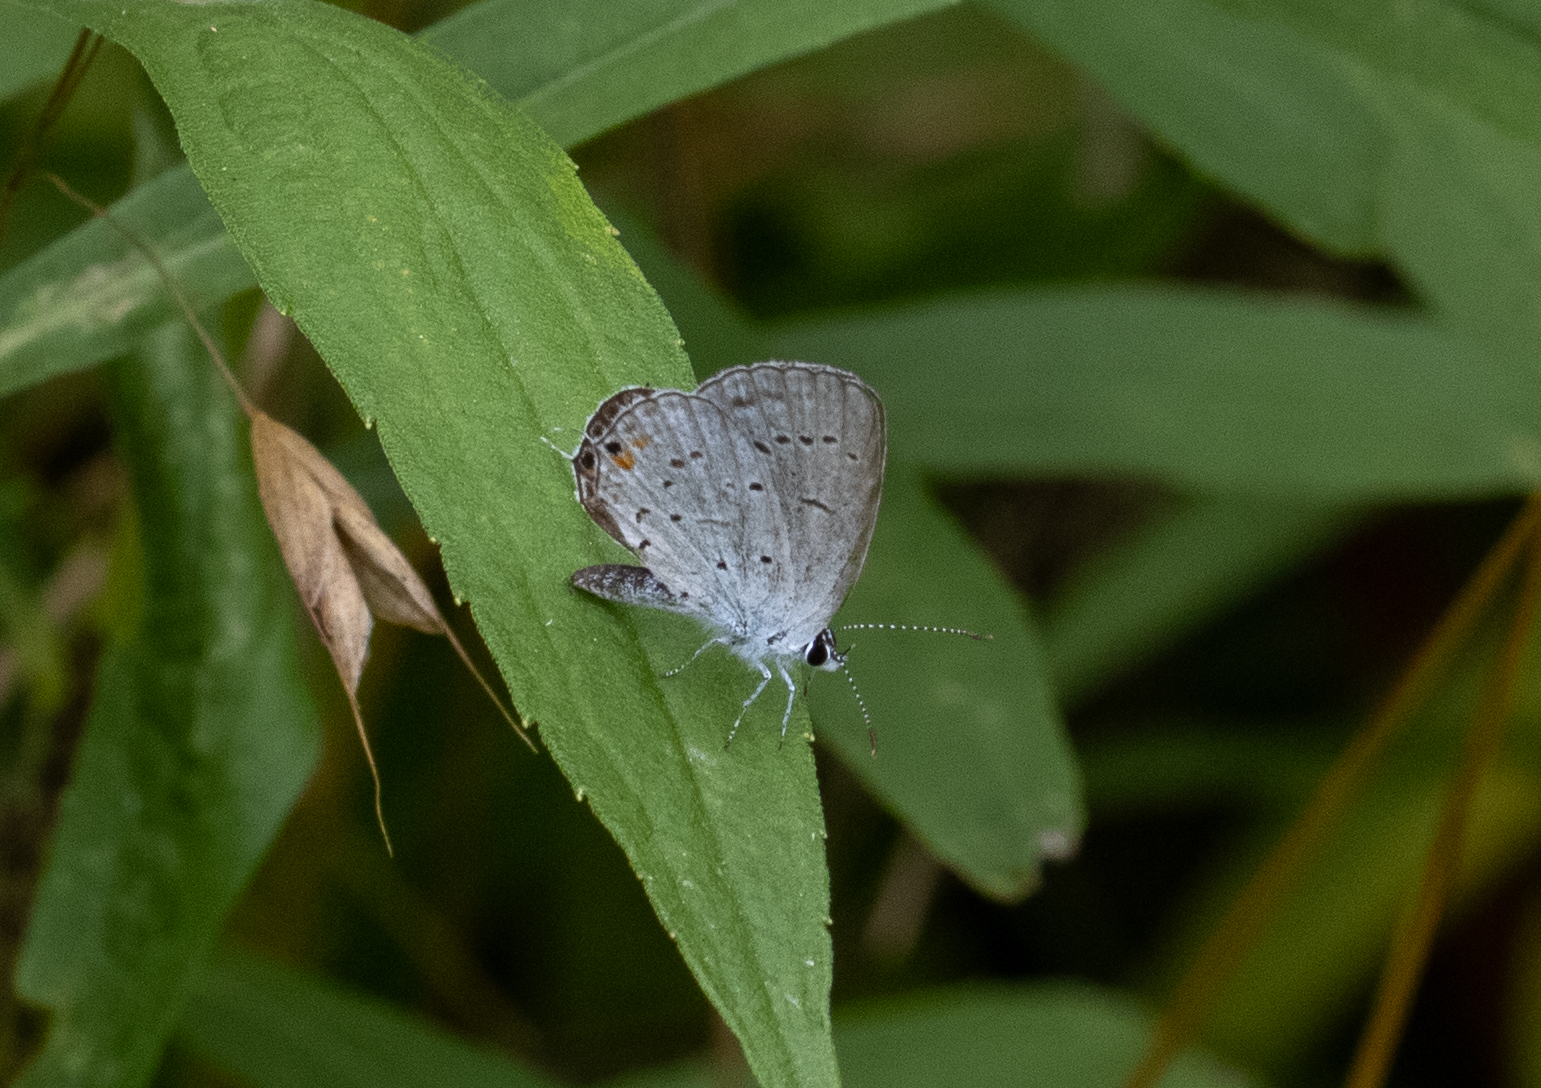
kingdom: Animalia
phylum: Arthropoda
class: Insecta
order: Lepidoptera
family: Lycaenidae
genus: Elkalyce
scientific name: Elkalyce comyntas
